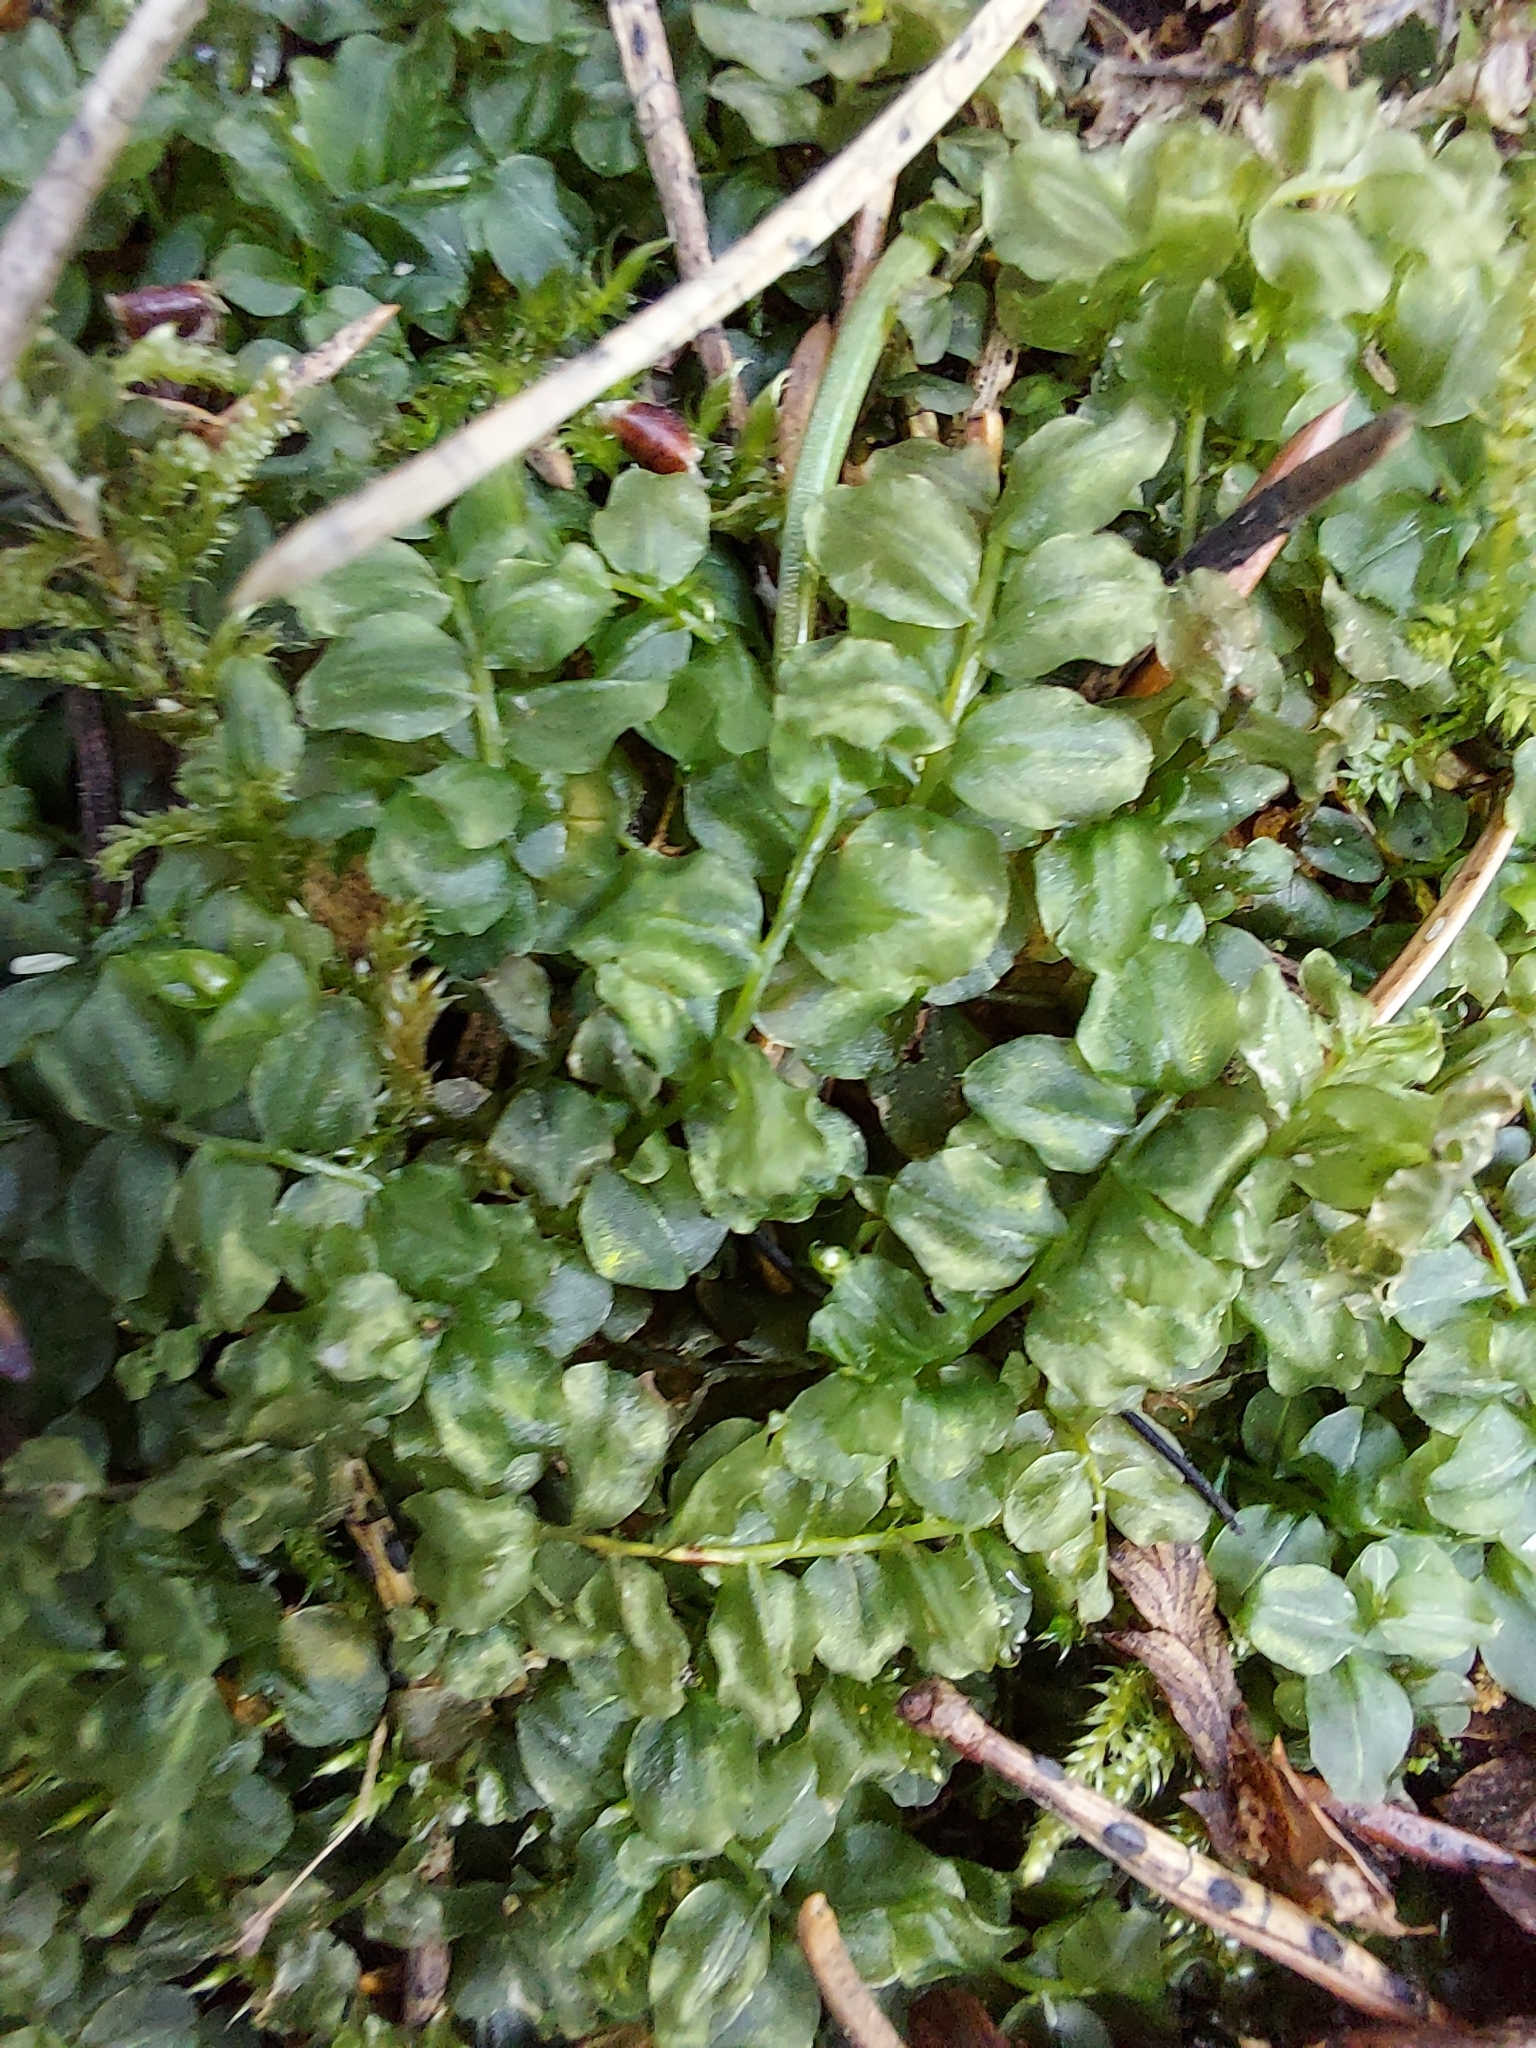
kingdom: Plantae
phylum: Bryophyta
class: Bryopsida
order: Bryales
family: Mniaceae
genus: Plagiomnium
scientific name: Plagiomnium affine
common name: Many-fruited thyme-moss
